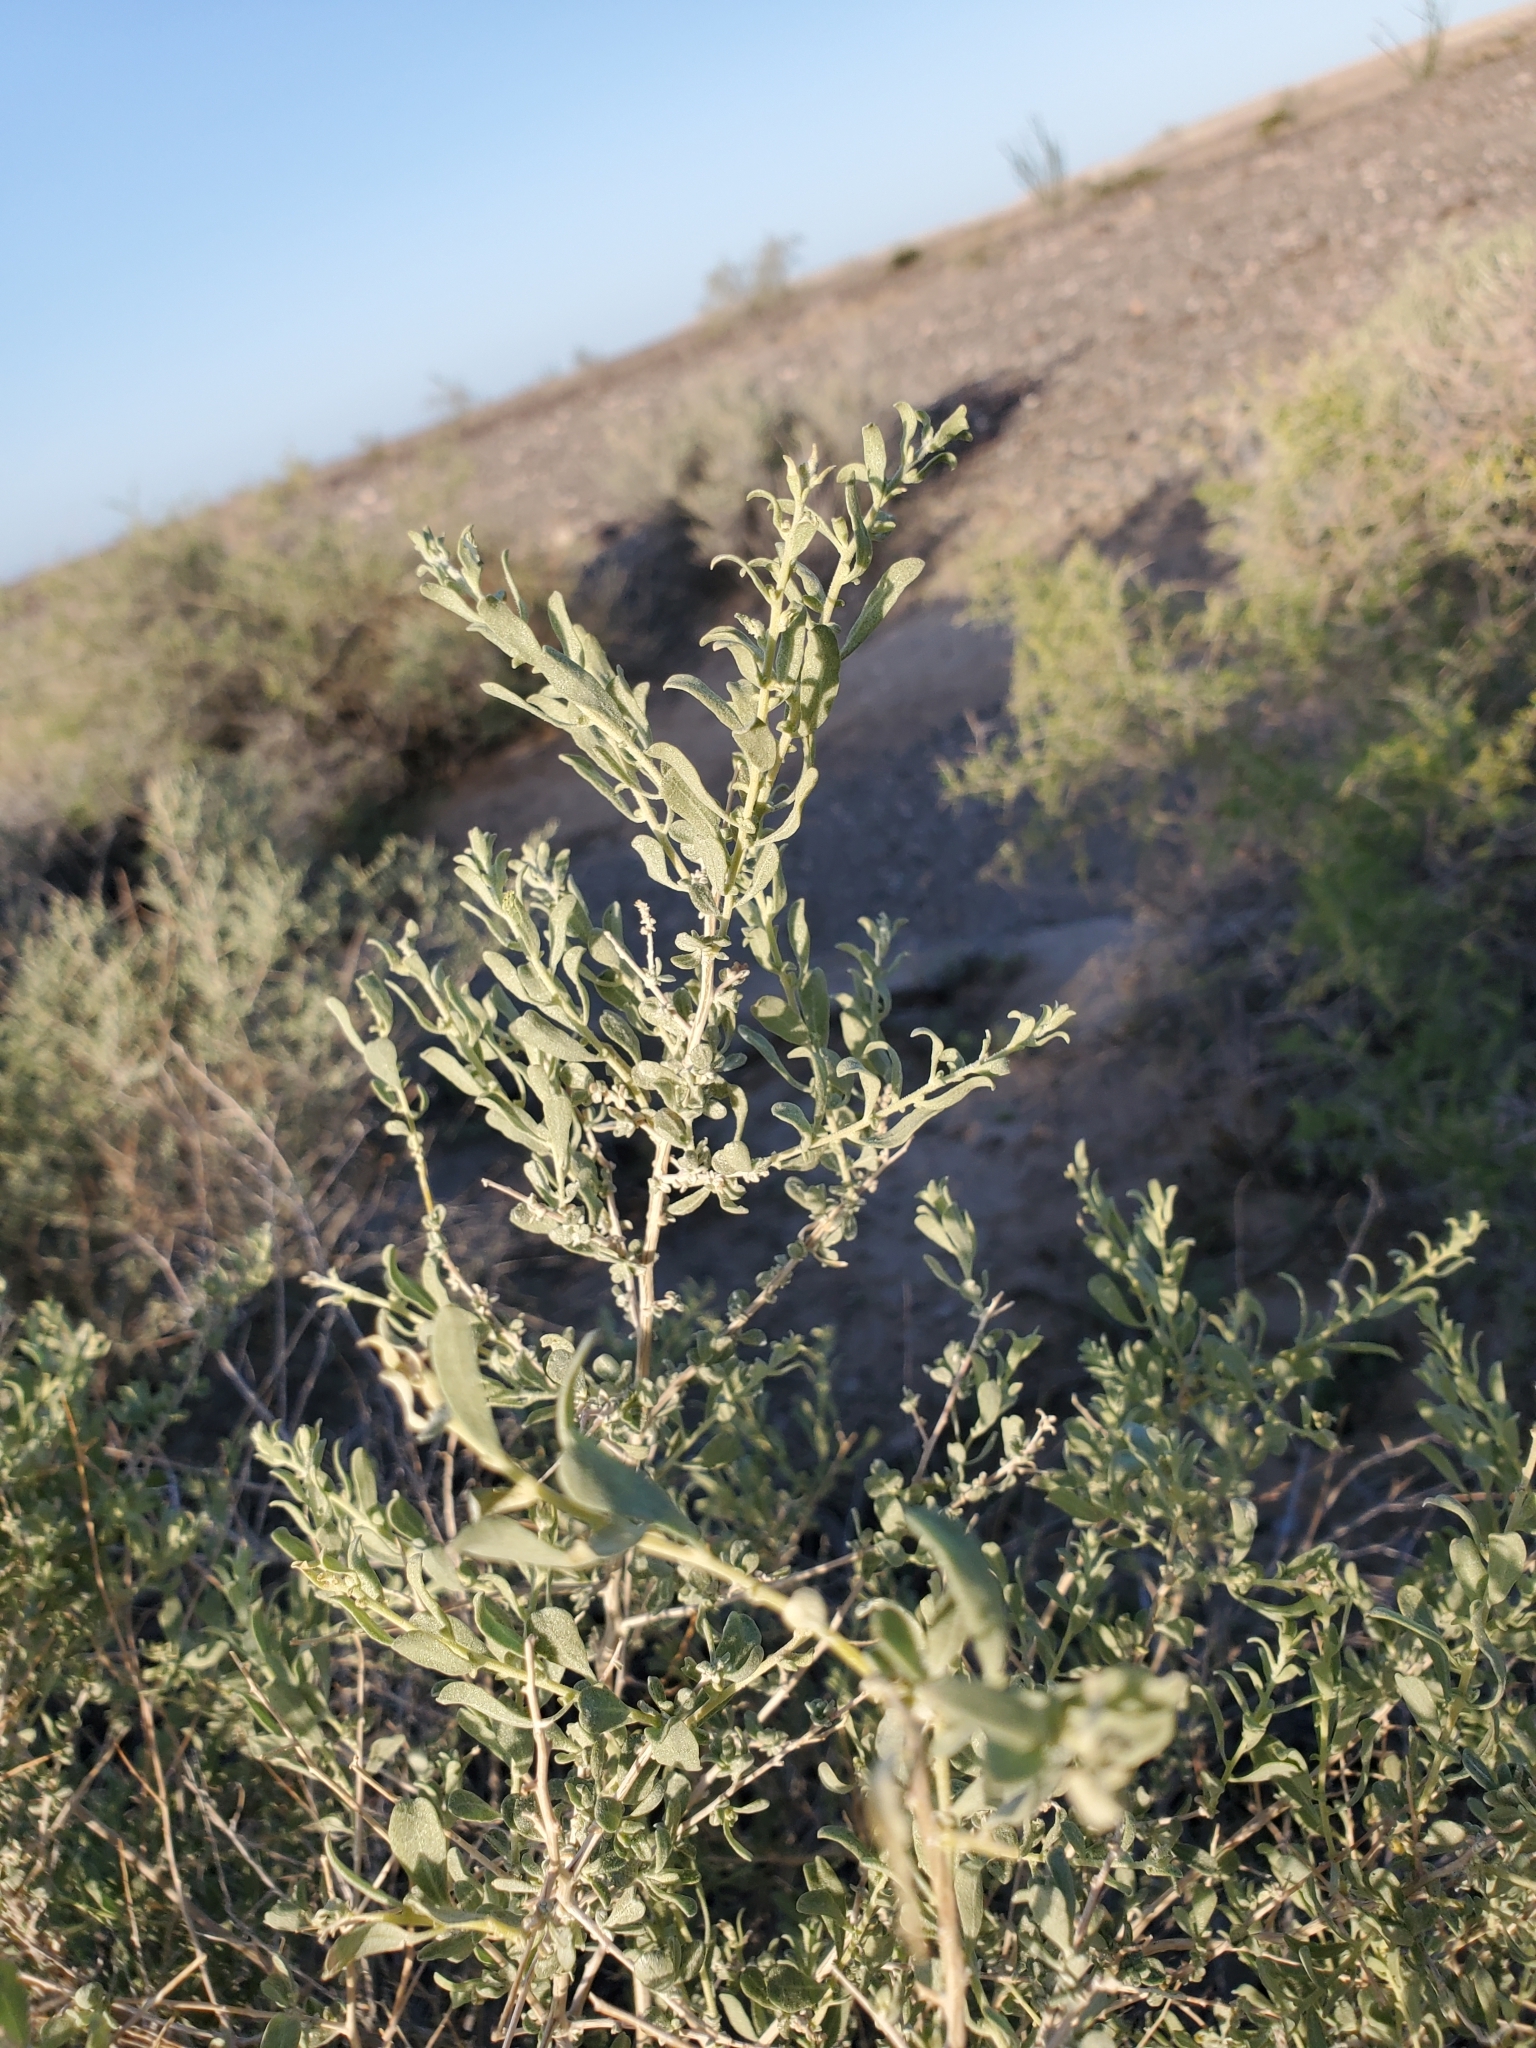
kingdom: Plantae
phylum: Tracheophyta
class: Magnoliopsida
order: Caryophyllales
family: Amaranthaceae
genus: Atriplex
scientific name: Atriplex canescens
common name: Four-wing saltbush
